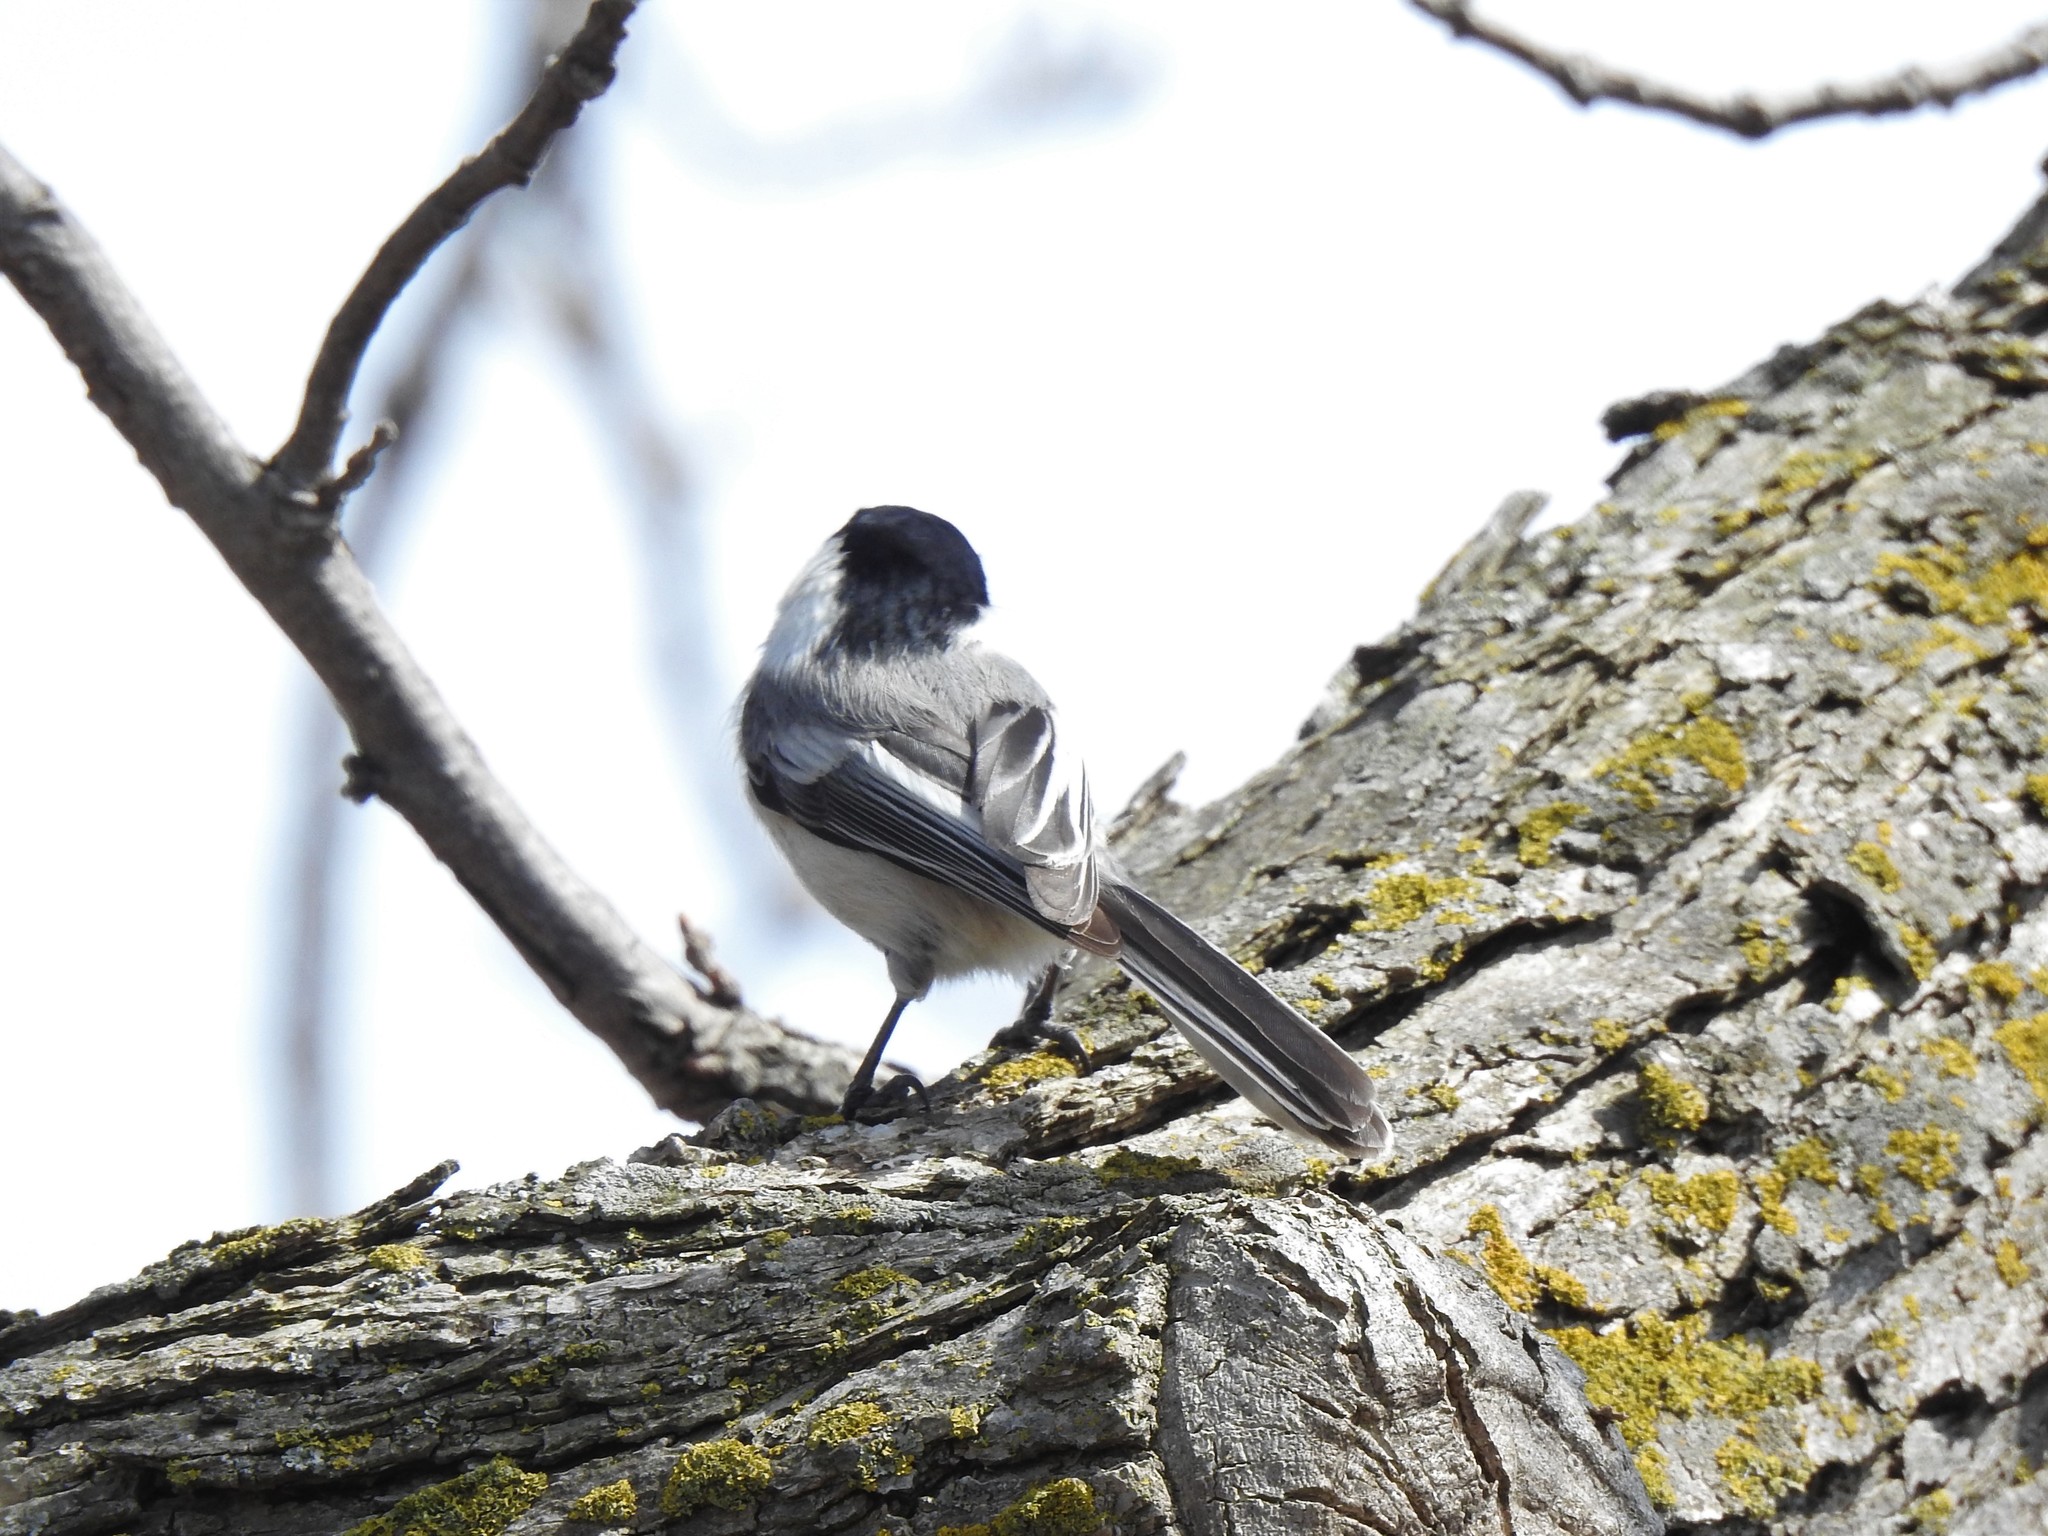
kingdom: Animalia
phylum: Chordata
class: Aves
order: Passeriformes
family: Paridae
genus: Poecile
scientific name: Poecile atricapillus
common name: Black-capped chickadee
